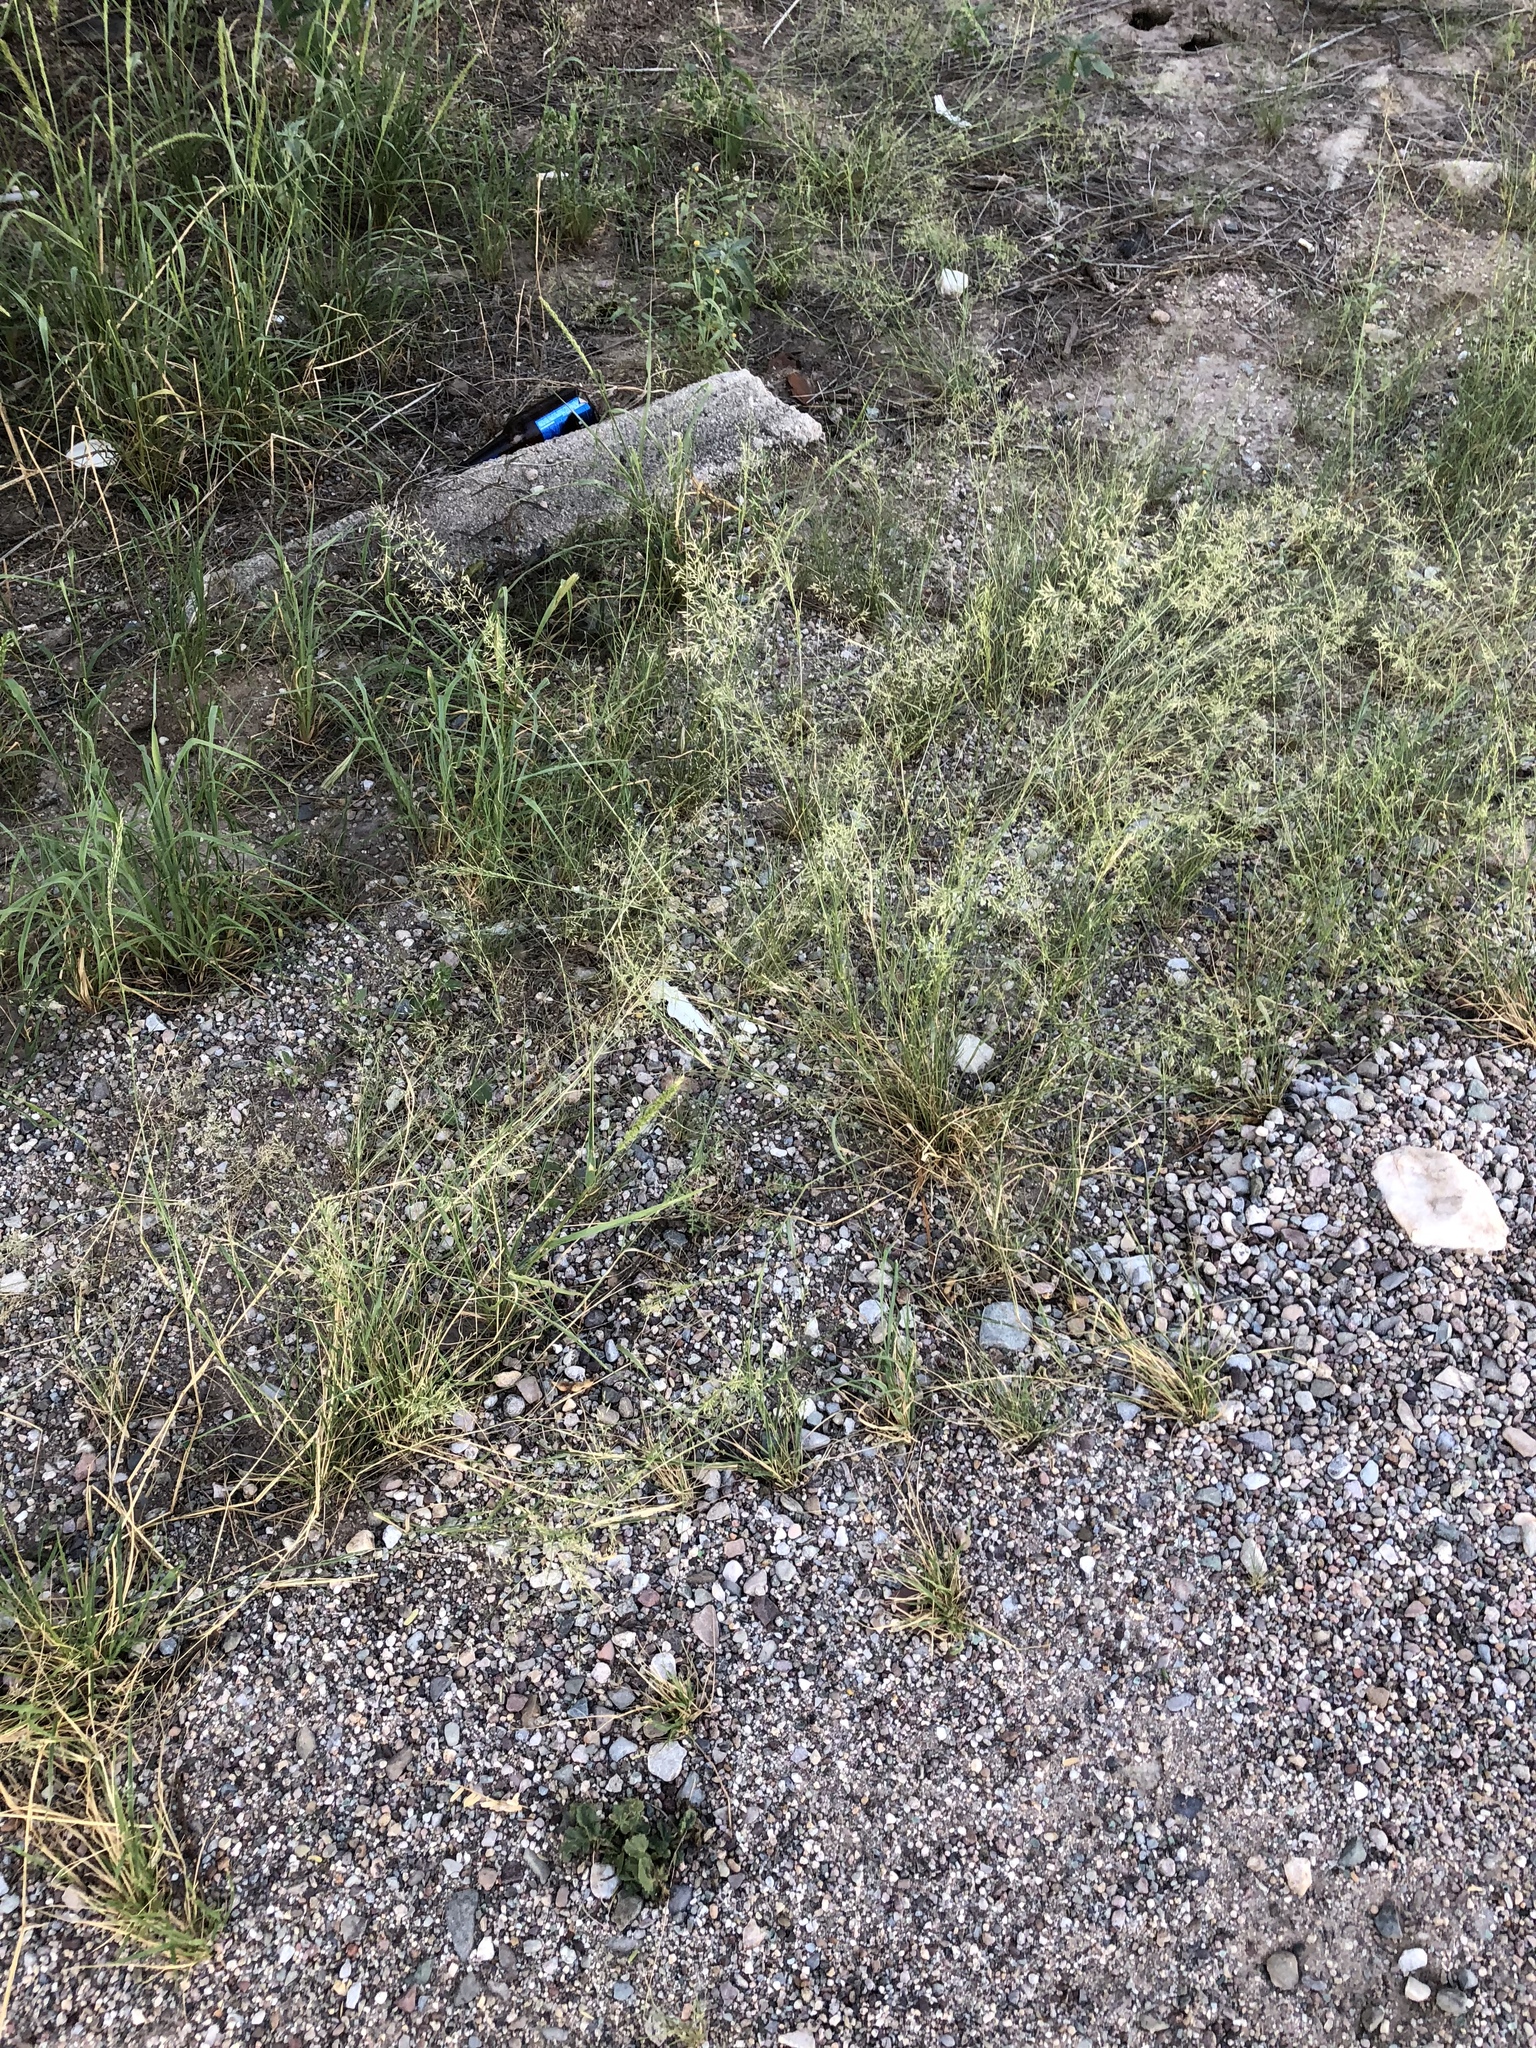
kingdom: Plantae
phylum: Tracheophyta
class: Liliopsida
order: Poales
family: Poaceae
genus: Eragrostis
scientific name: Eragrostis lehmanniana
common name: Lehmann lovegrass
